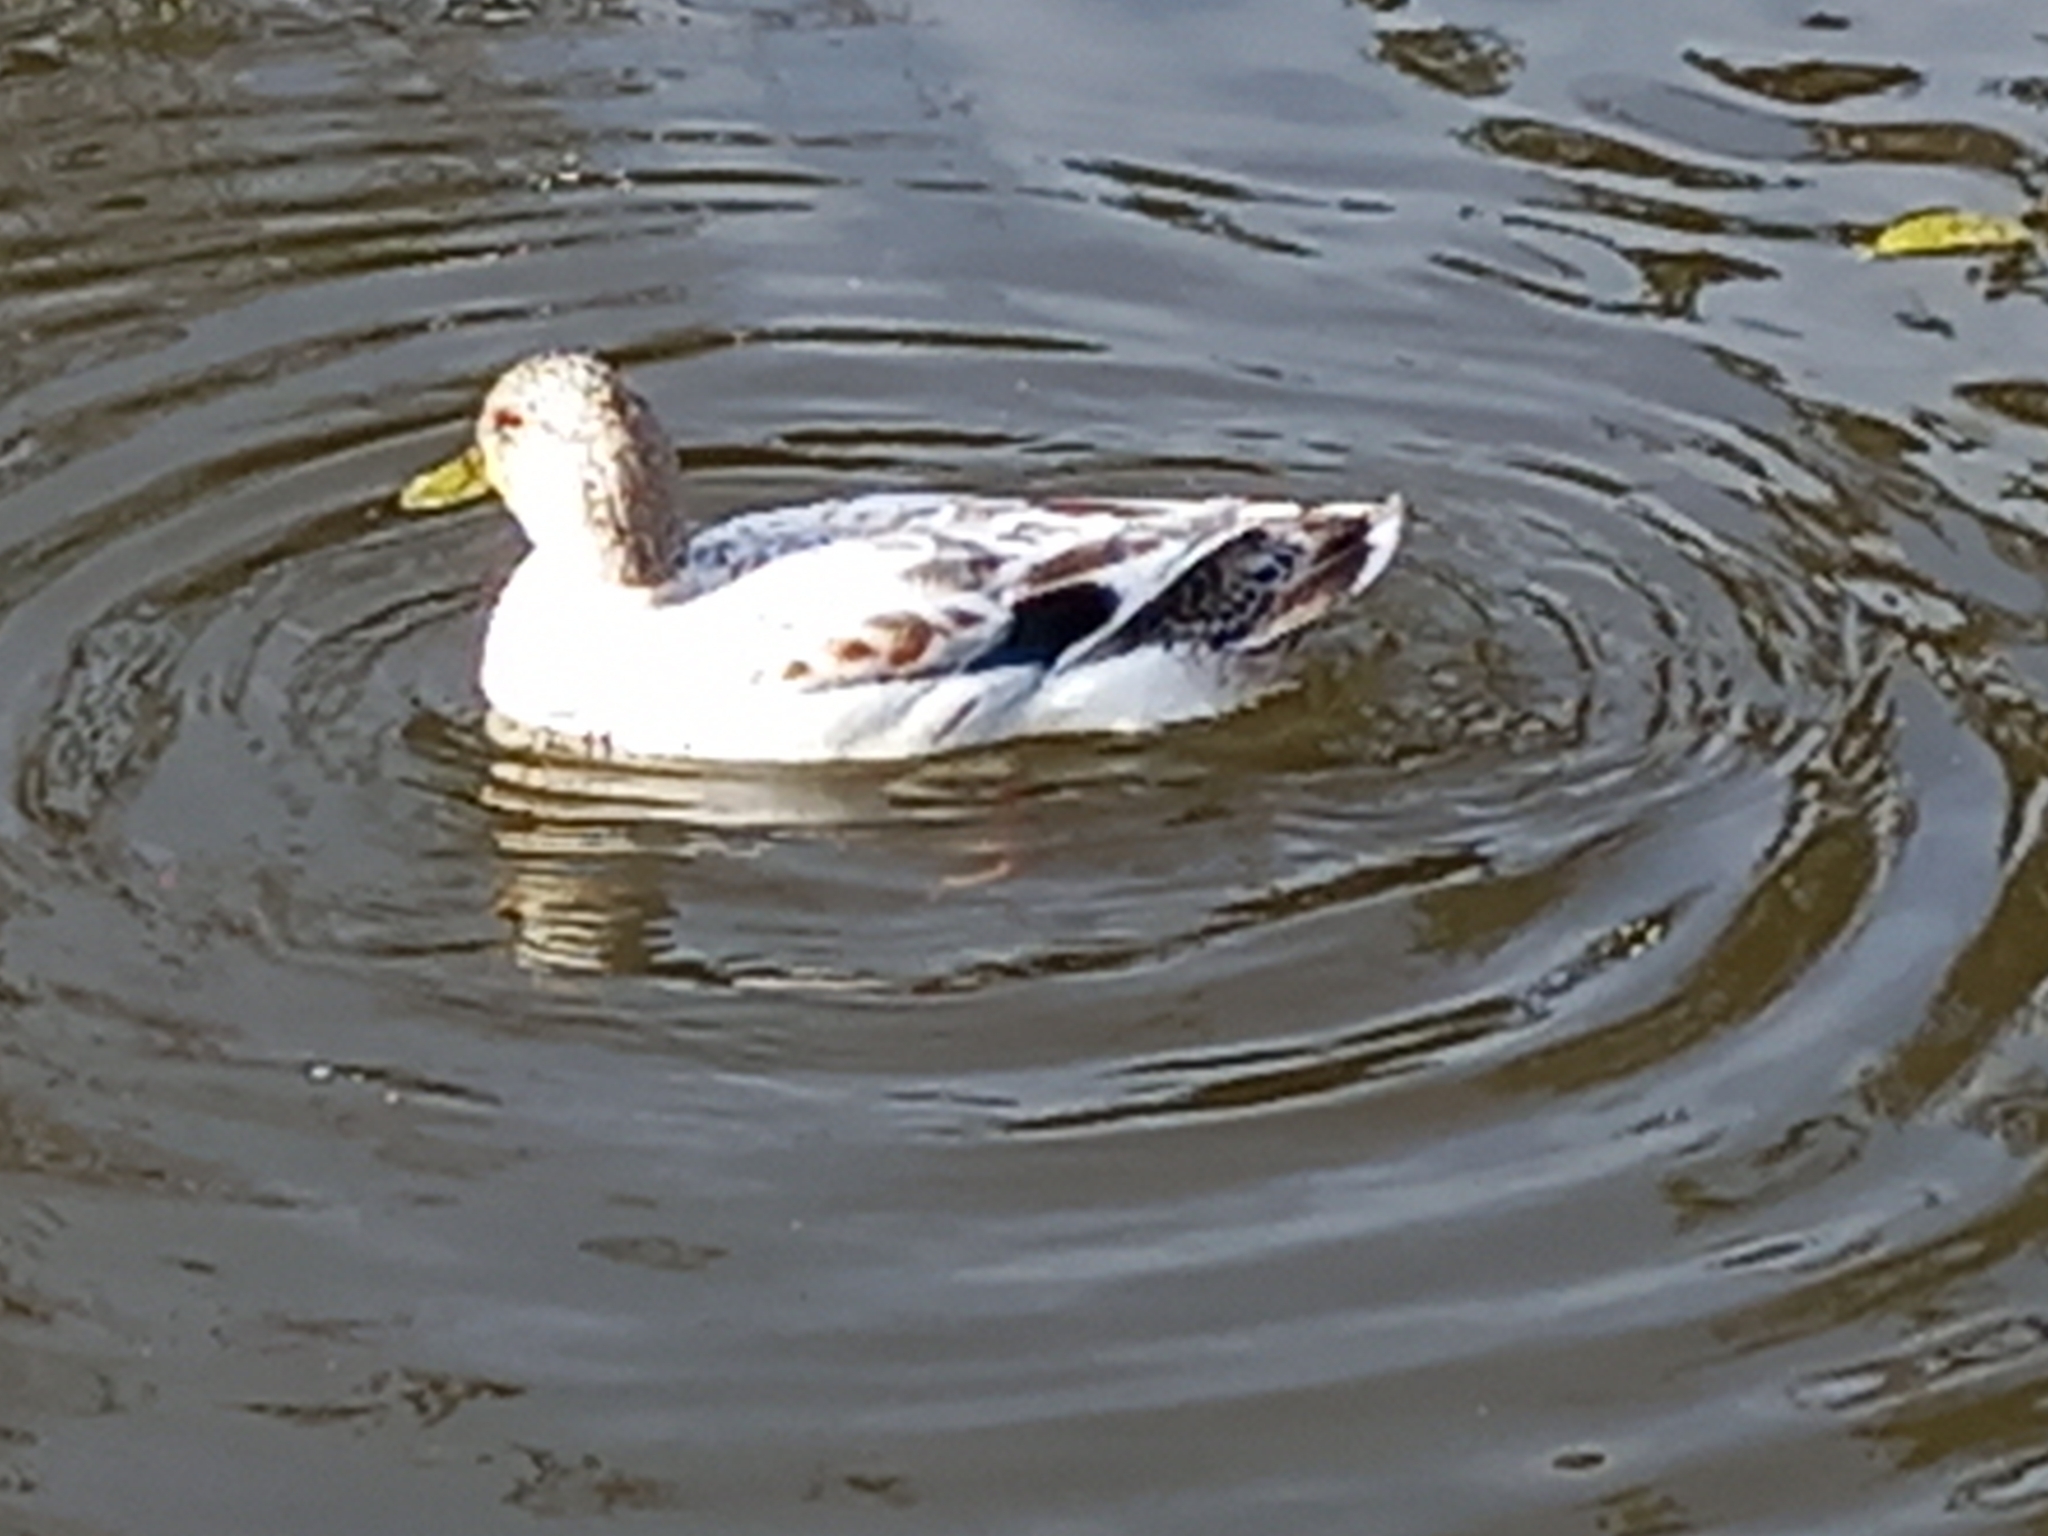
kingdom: Animalia
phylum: Chordata
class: Aves
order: Anseriformes
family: Anatidae
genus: Anas
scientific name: Anas platyrhynchos
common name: Mallard
